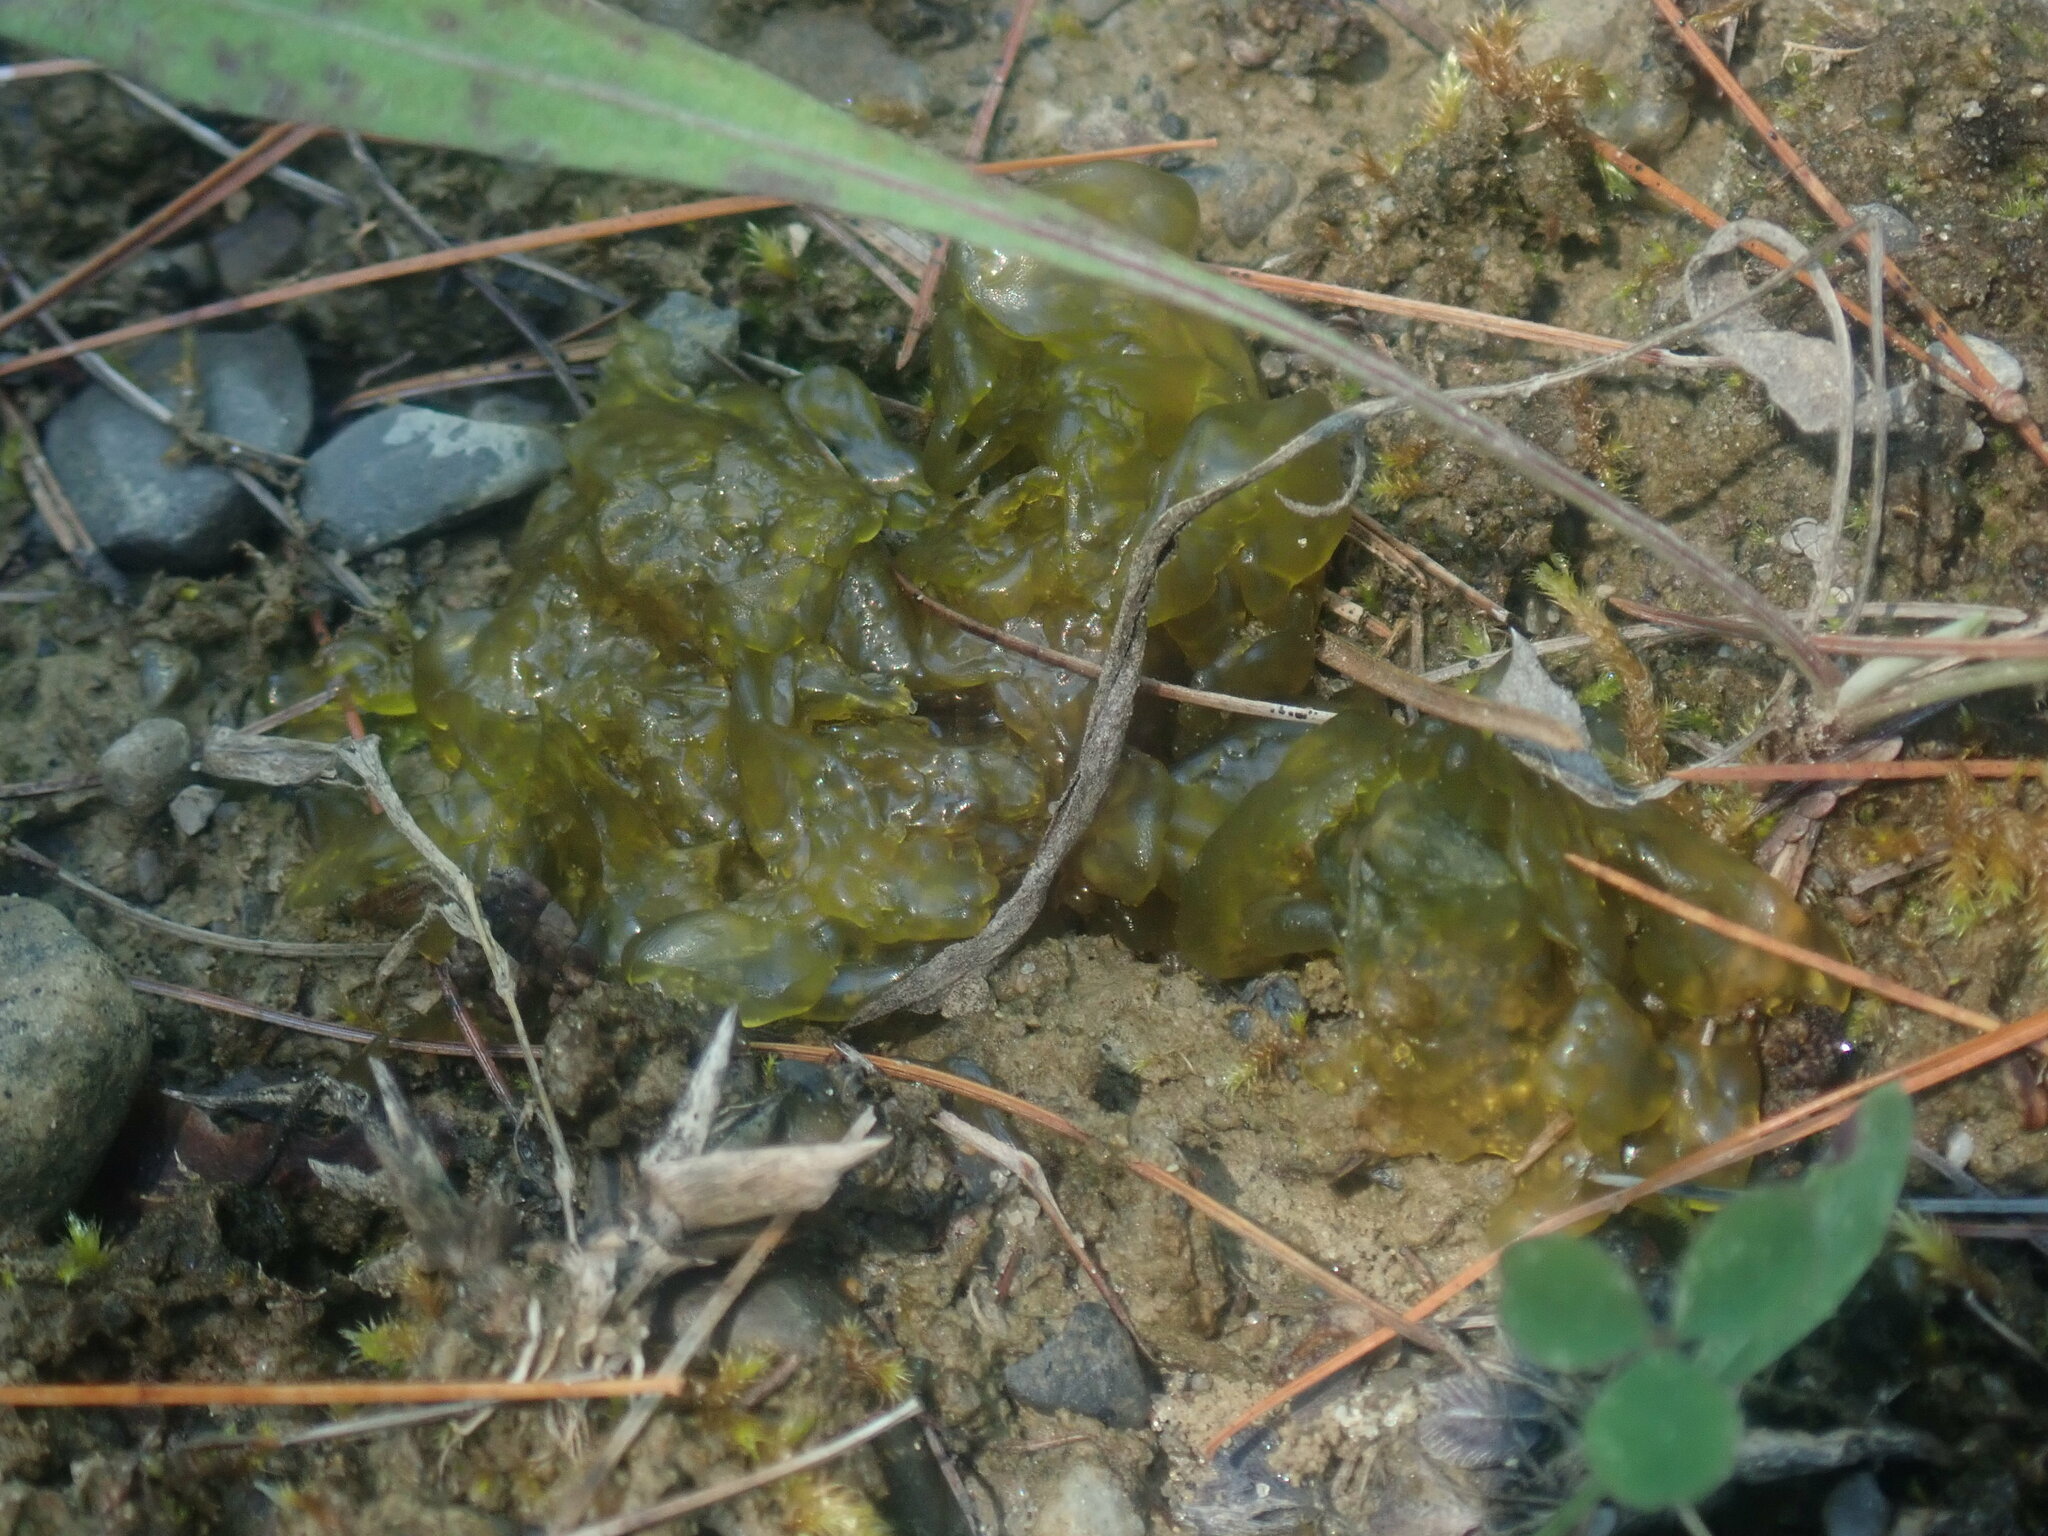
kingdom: Bacteria
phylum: Cyanobacteria
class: Cyanobacteriia
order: Cyanobacteriales
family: Nostocaceae
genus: Nostoc
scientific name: Nostoc commune
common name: Star jelly
